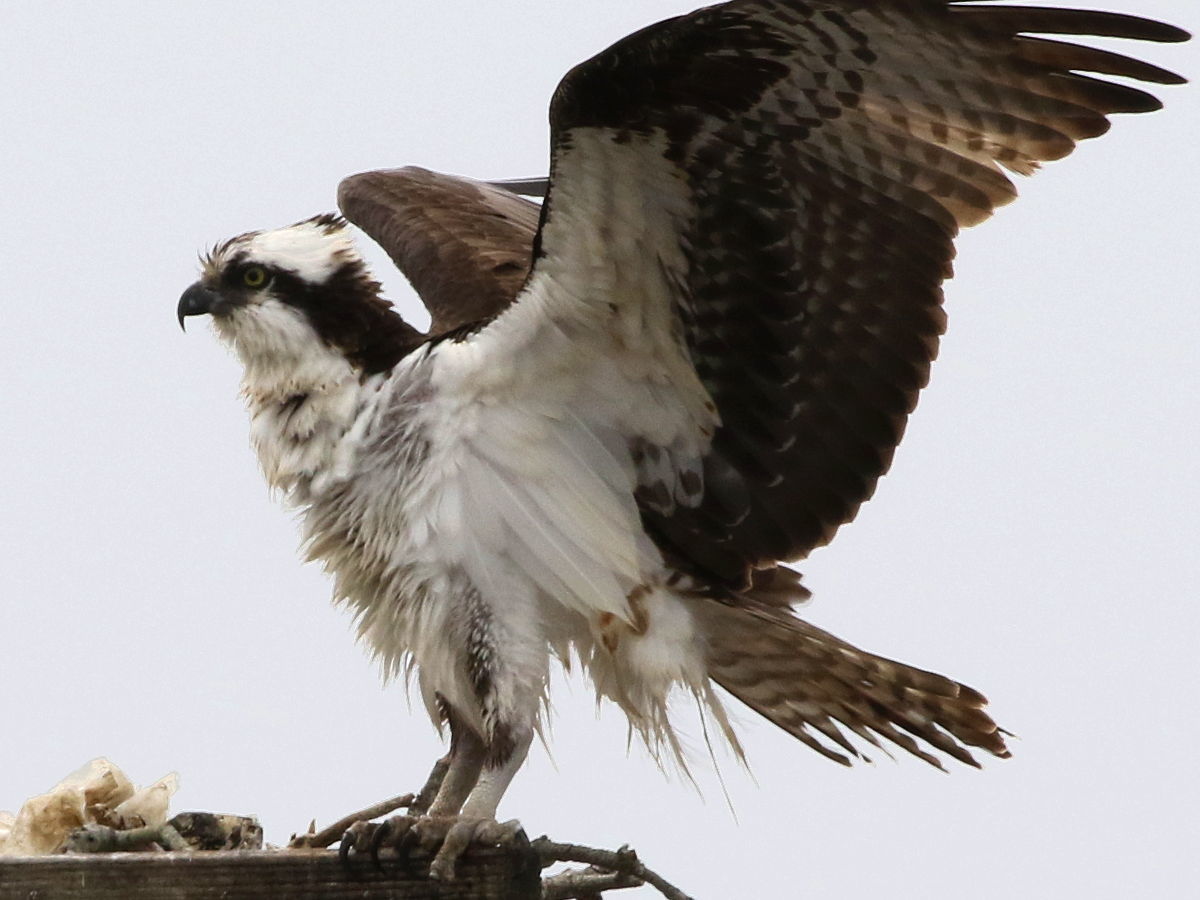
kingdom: Animalia
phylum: Chordata
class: Aves
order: Accipitriformes
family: Pandionidae
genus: Pandion
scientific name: Pandion haliaetus
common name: Osprey
